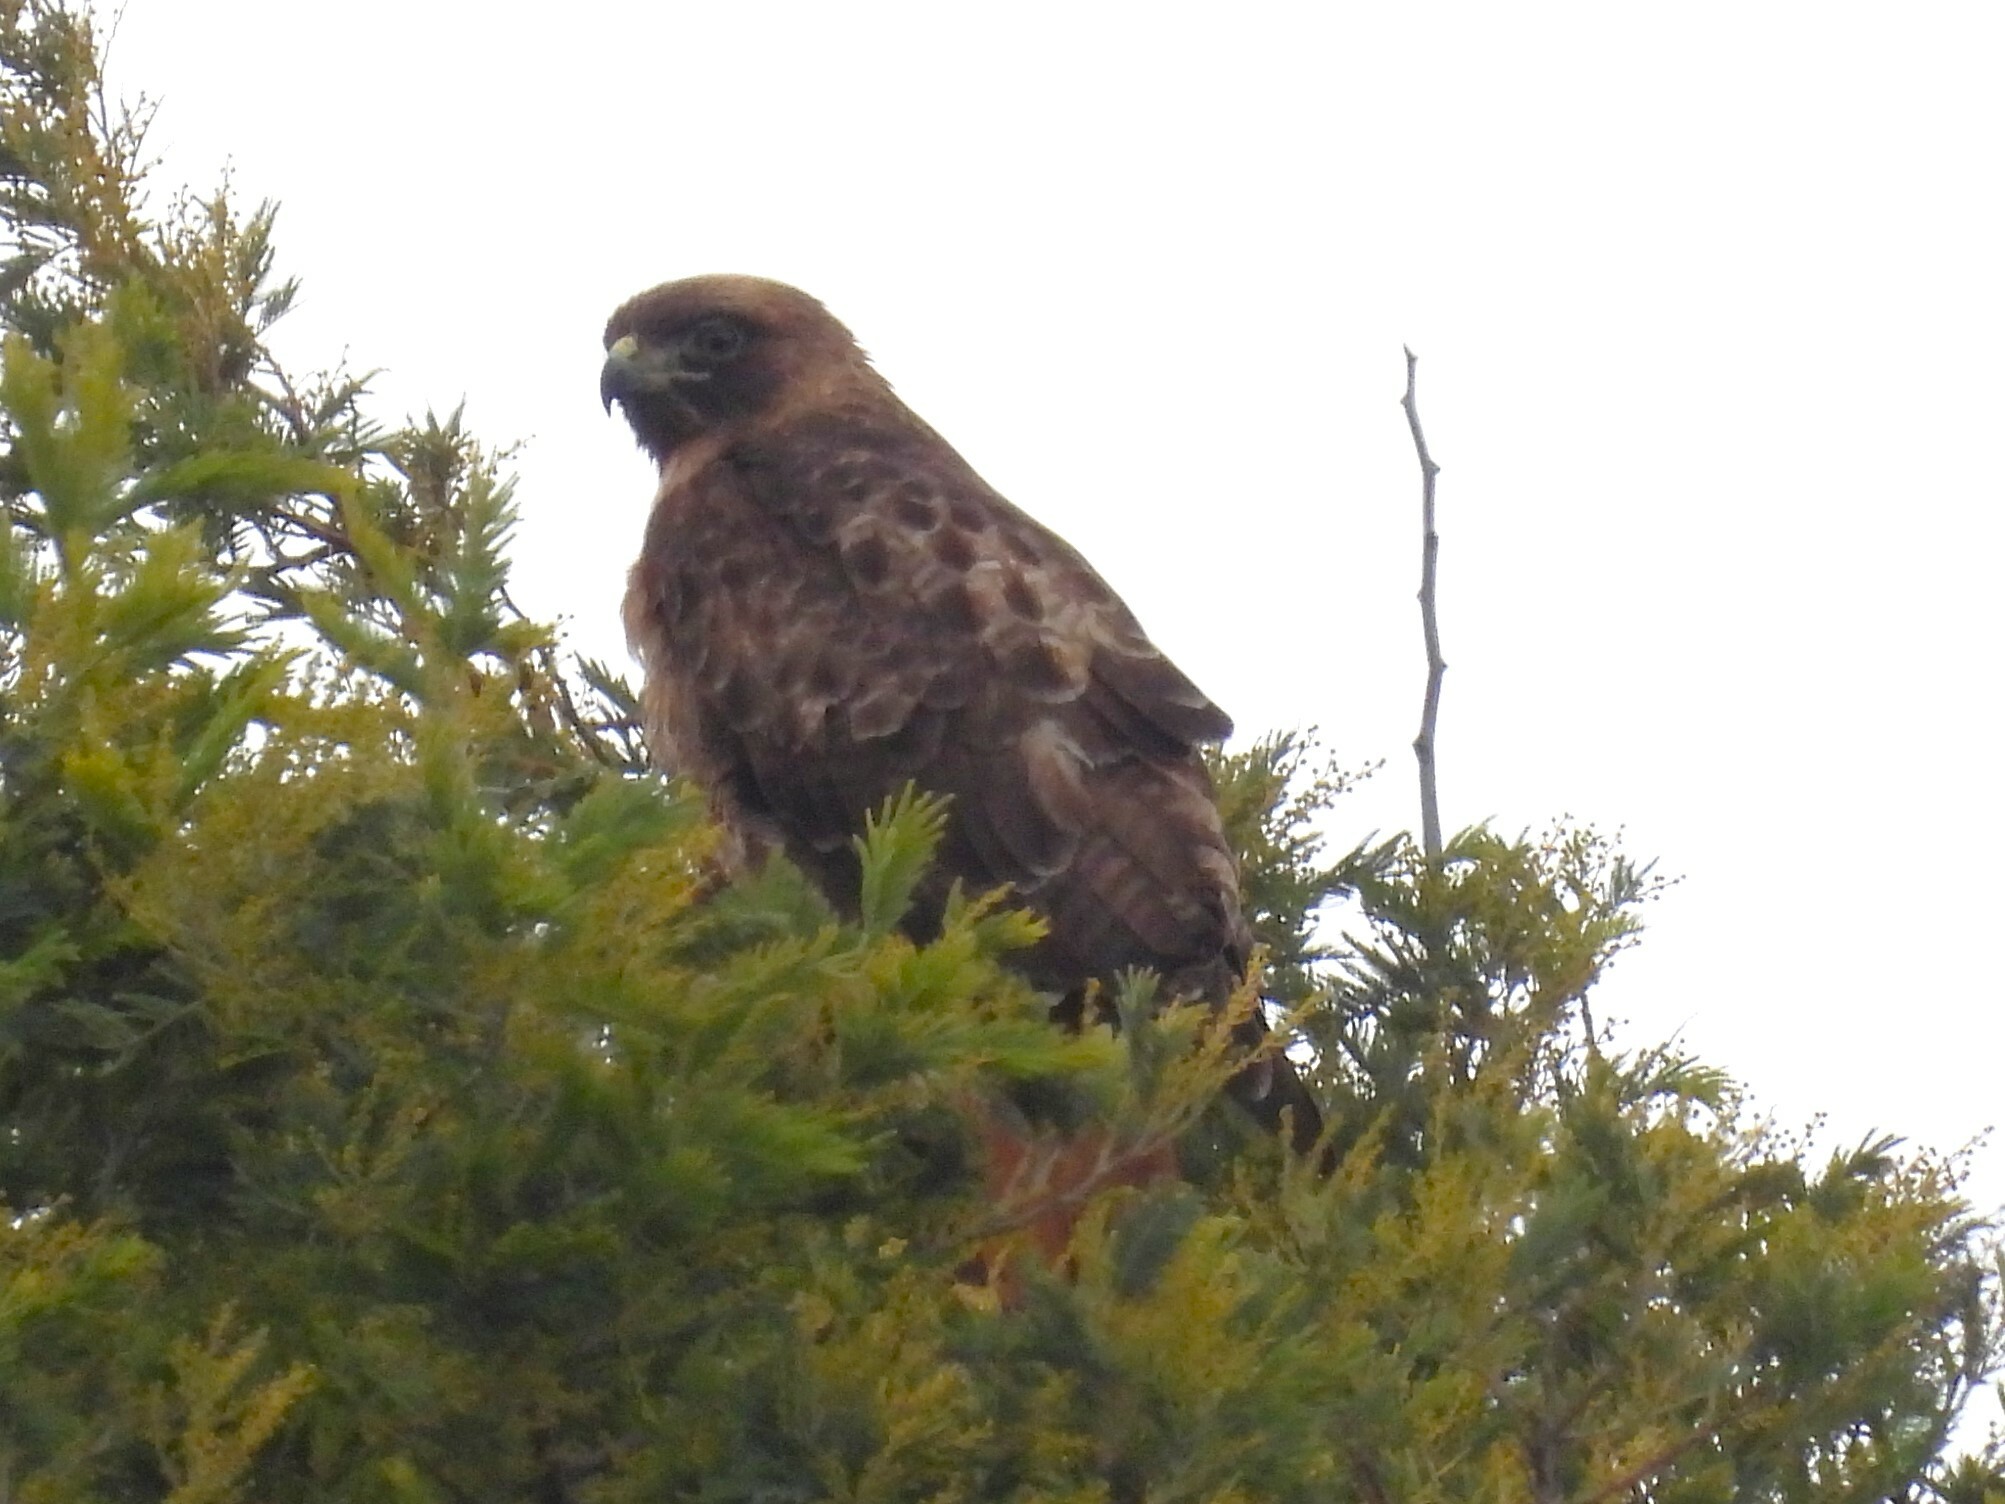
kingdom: Animalia
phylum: Chordata
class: Aves
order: Accipitriformes
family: Accipitridae
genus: Buteo
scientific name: Buteo jamaicensis
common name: Red-tailed hawk
